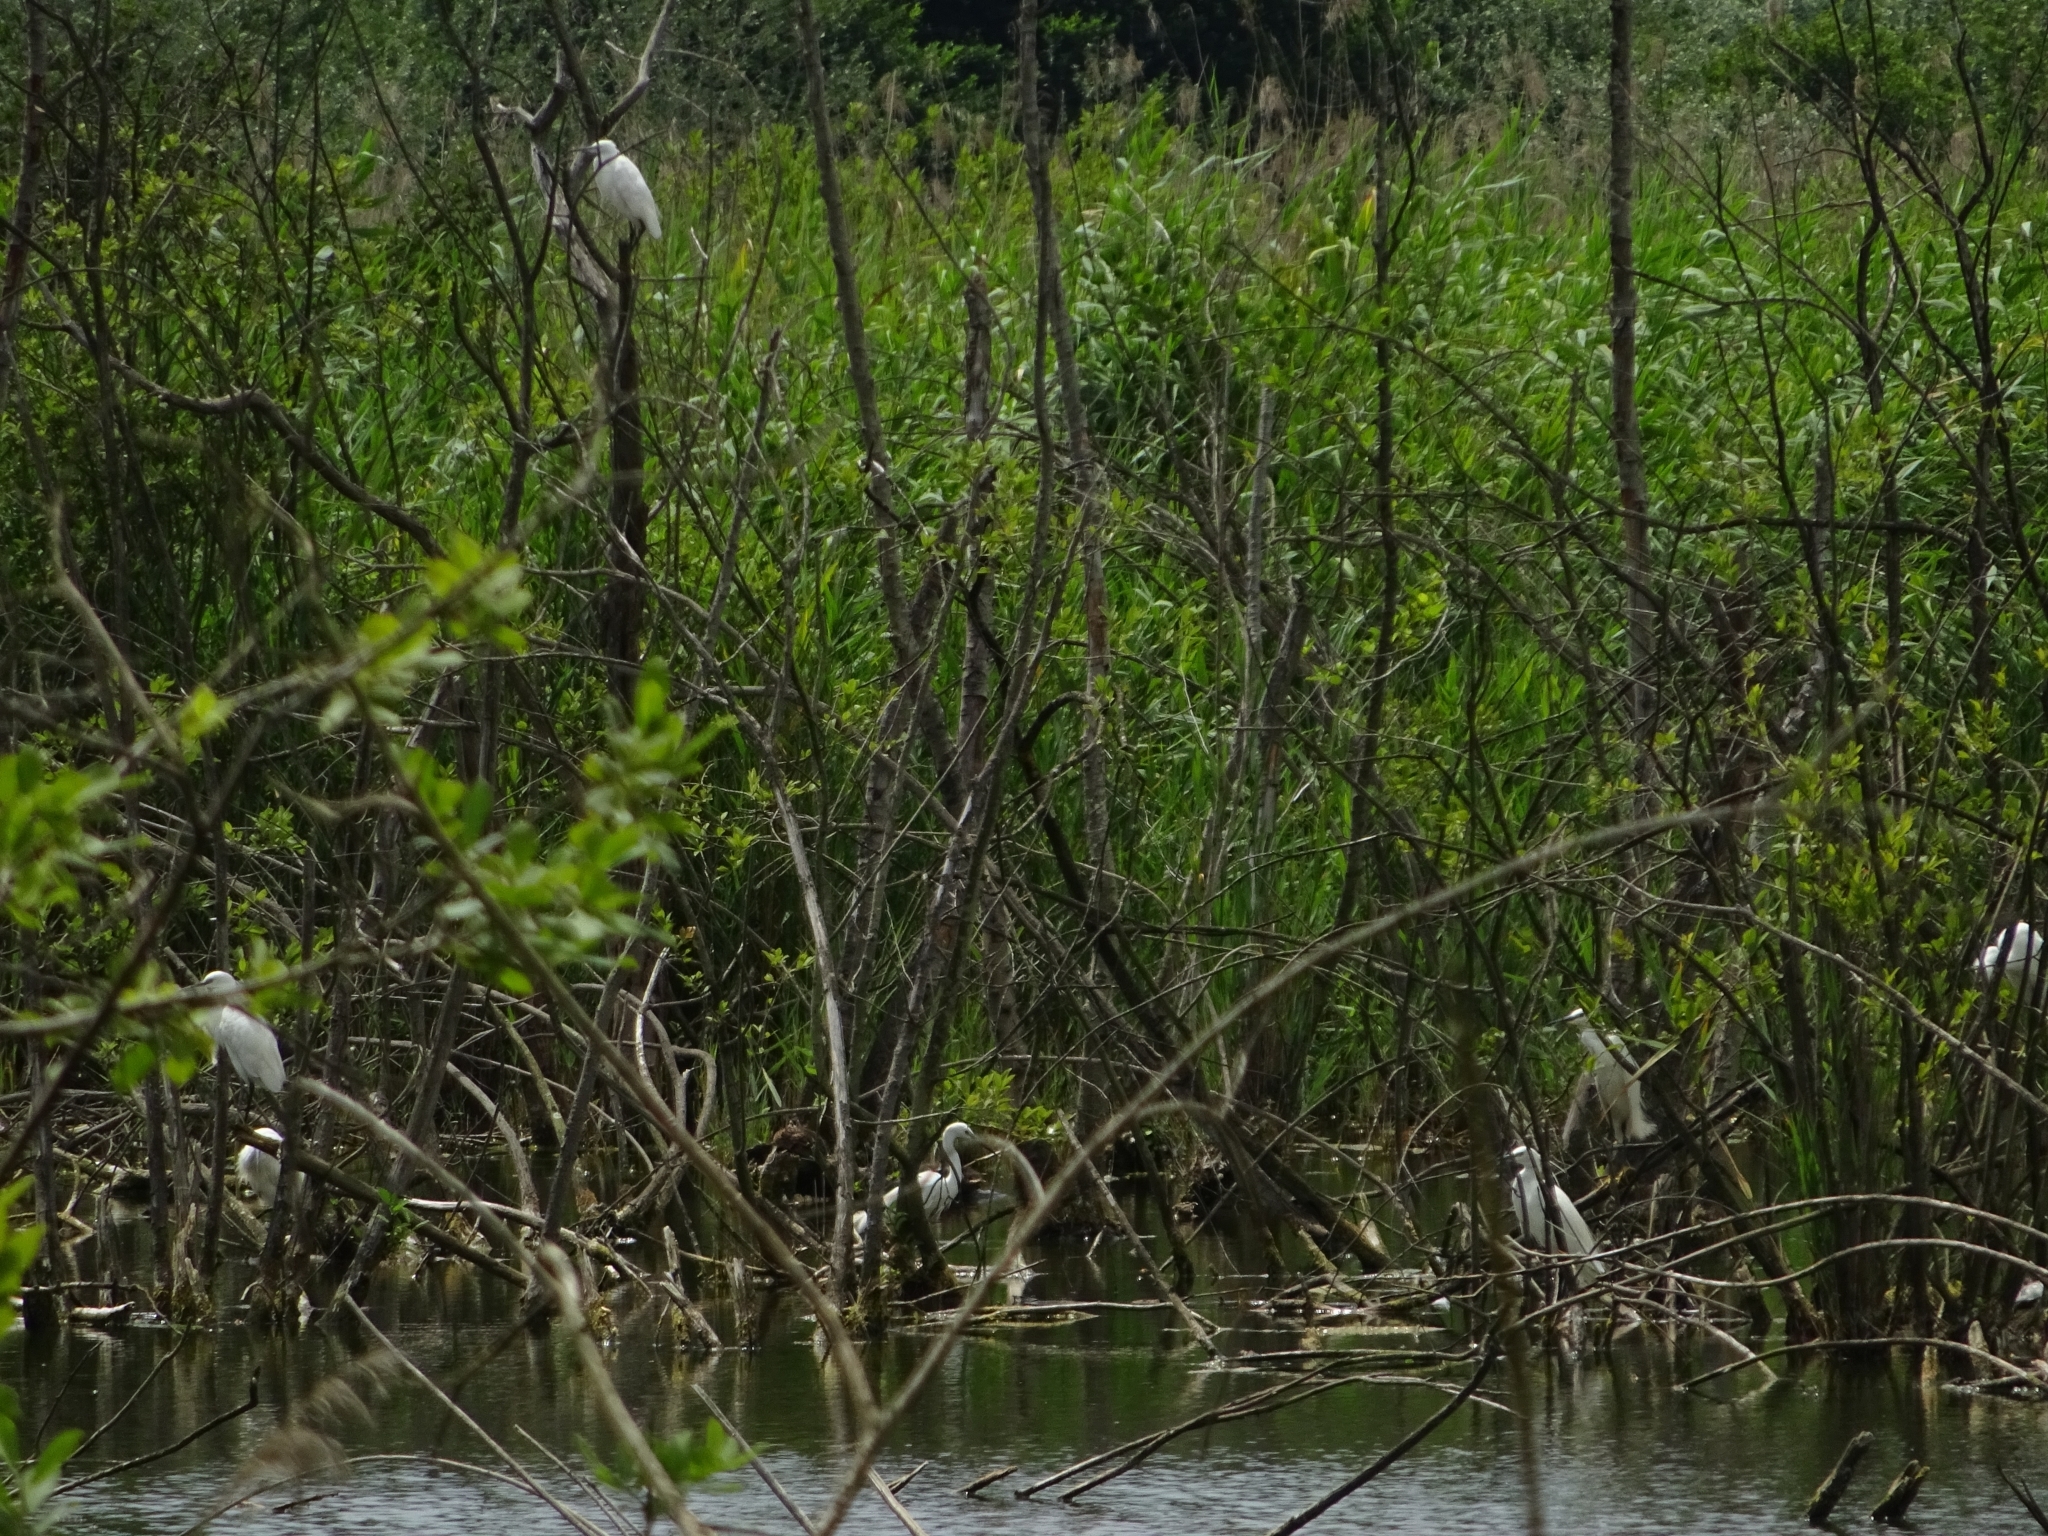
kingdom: Animalia
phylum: Chordata
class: Aves
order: Pelecaniformes
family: Ardeidae
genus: Egretta
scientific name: Egretta garzetta
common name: Little egret
